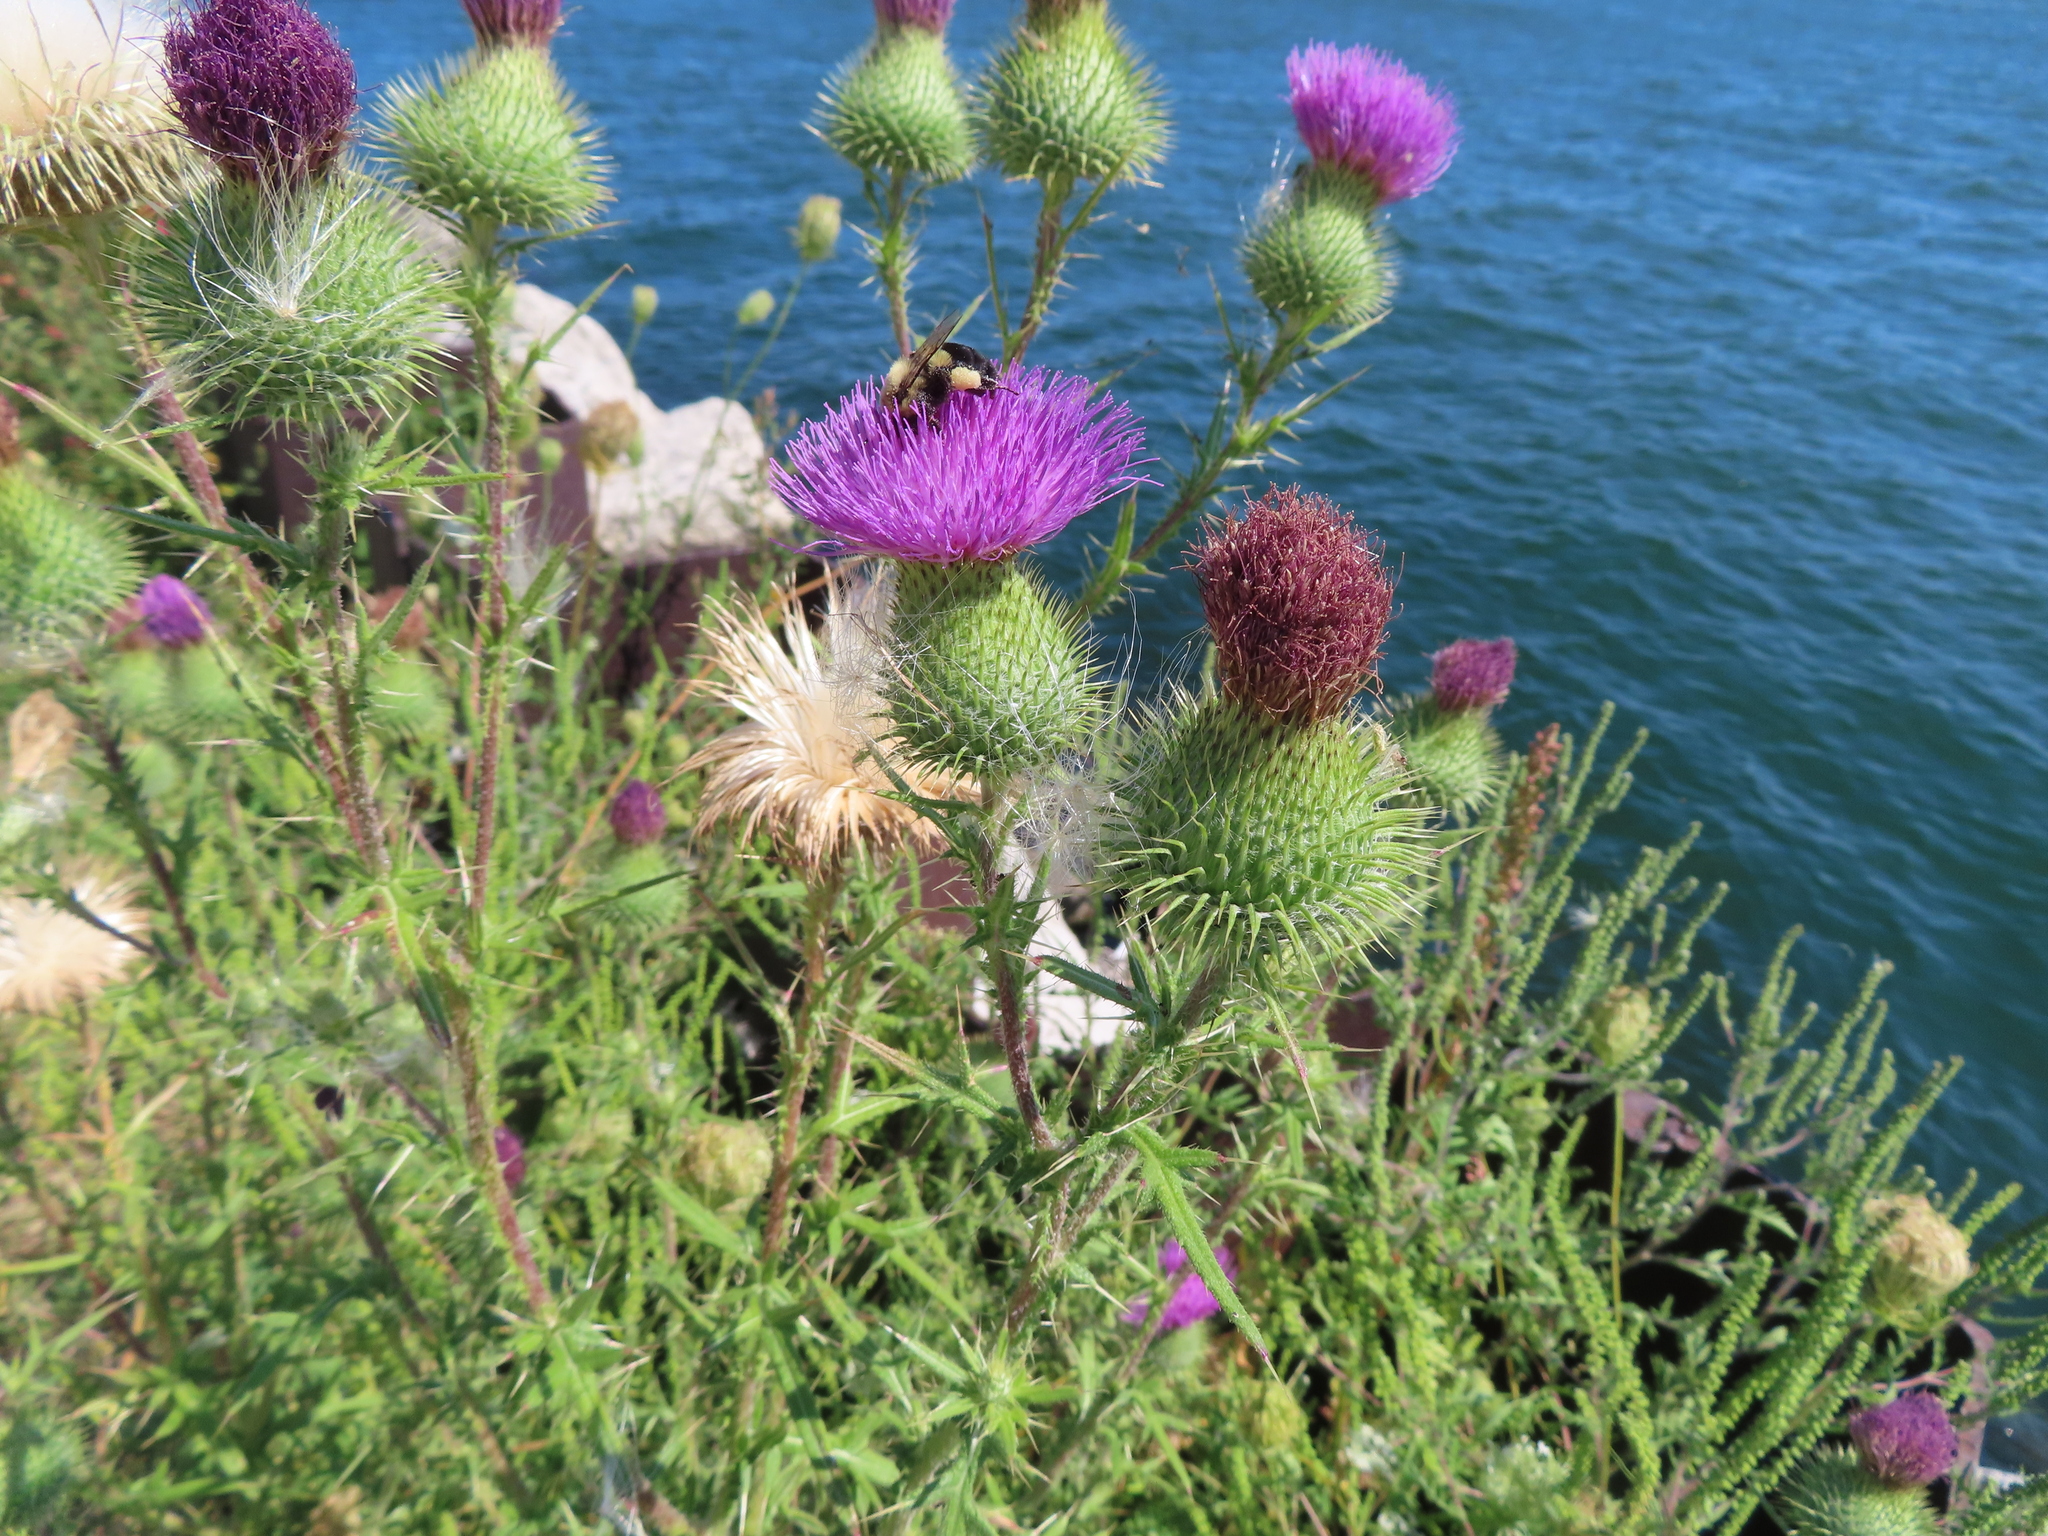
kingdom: Plantae
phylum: Tracheophyta
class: Magnoliopsida
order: Asterales
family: Asteraceae
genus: Cirsium
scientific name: Cirsium vulgare
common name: Bull thistle
